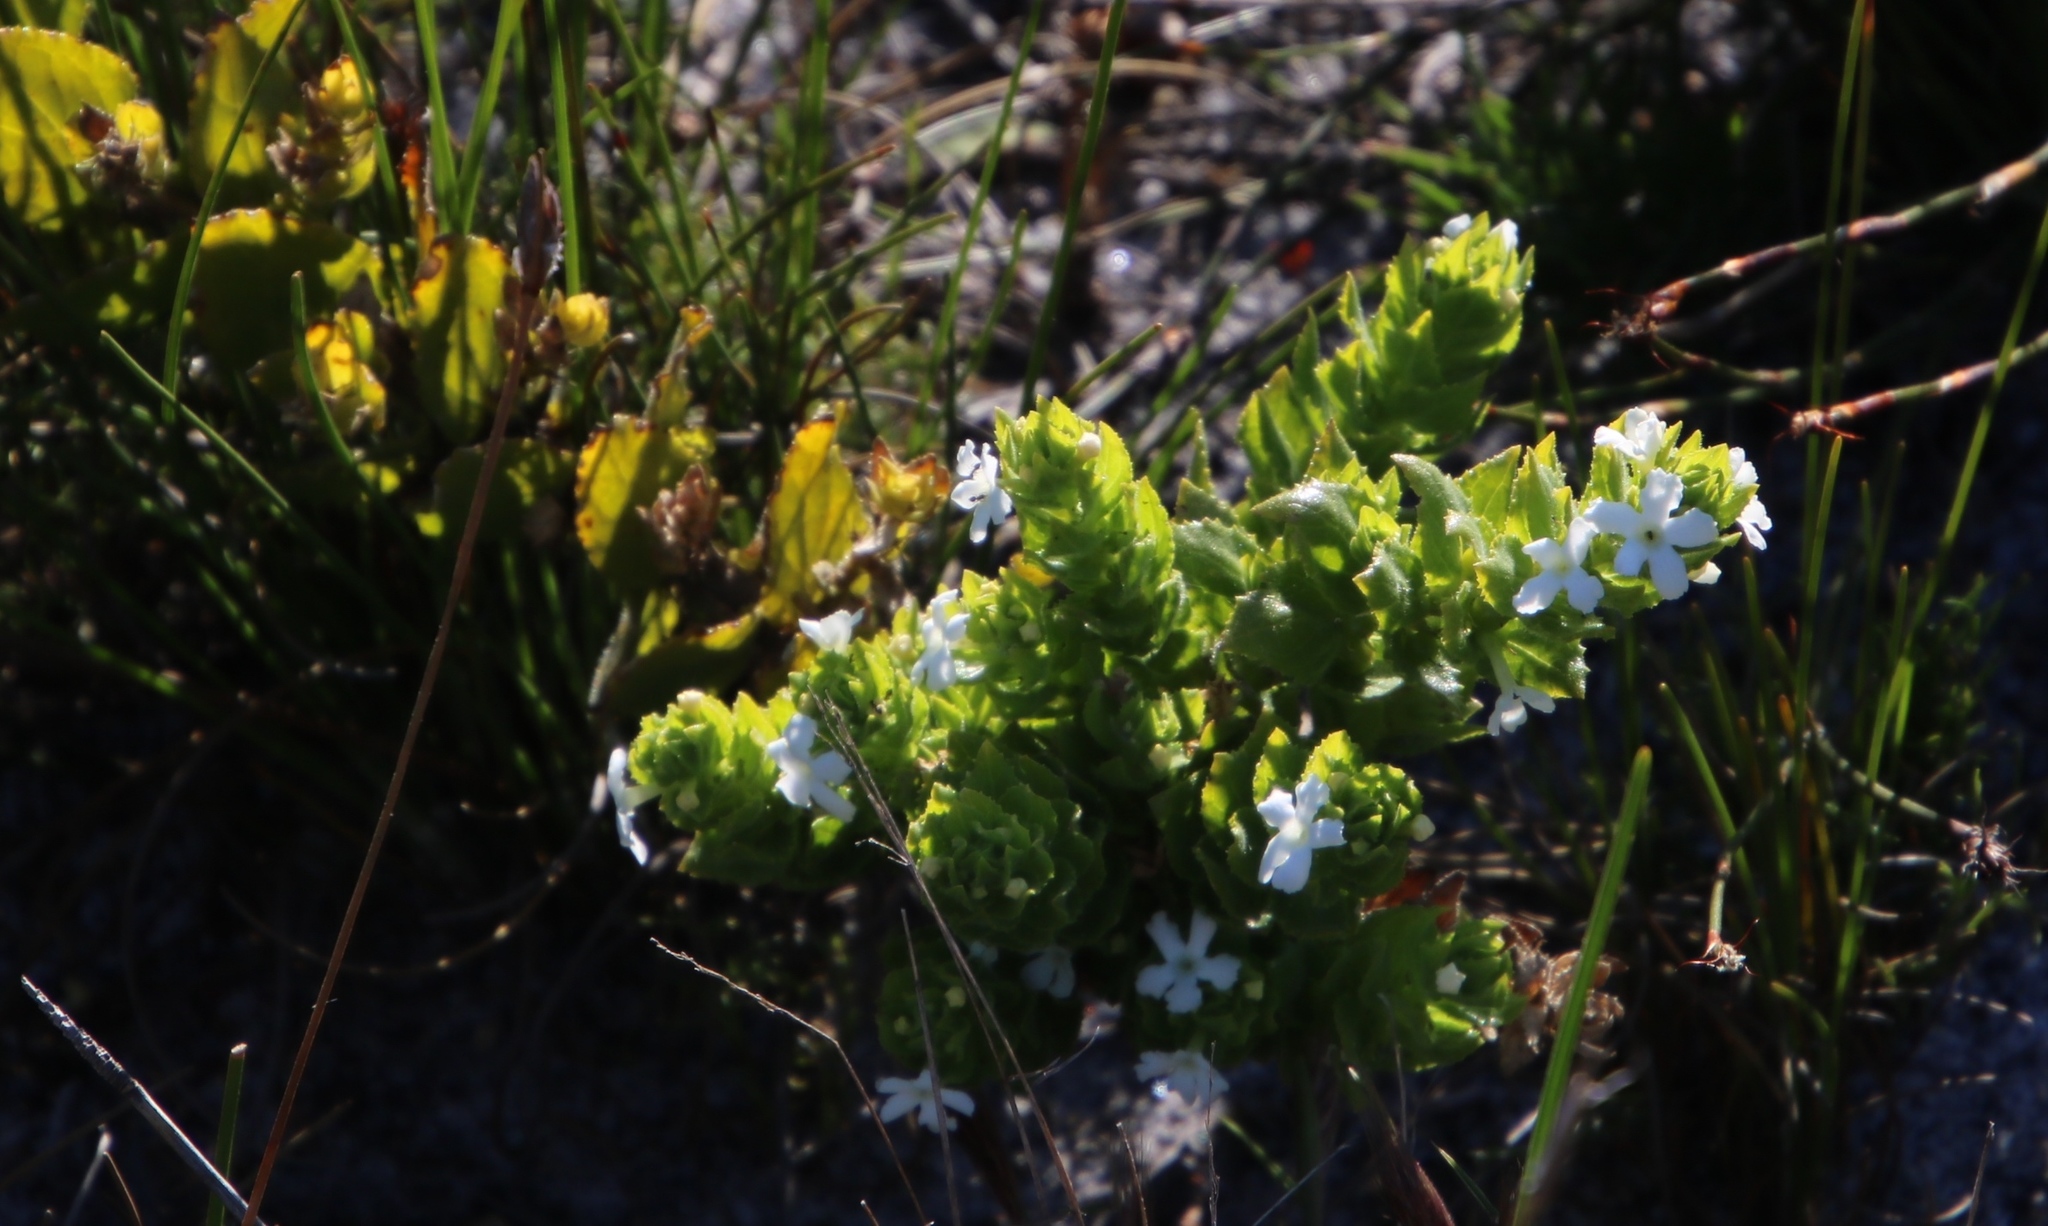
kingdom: Plantae
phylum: Tracheophyta
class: Magnoliopsida
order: Lamiales
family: Scrophulariaceae
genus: Oftia
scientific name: Oftia africana
